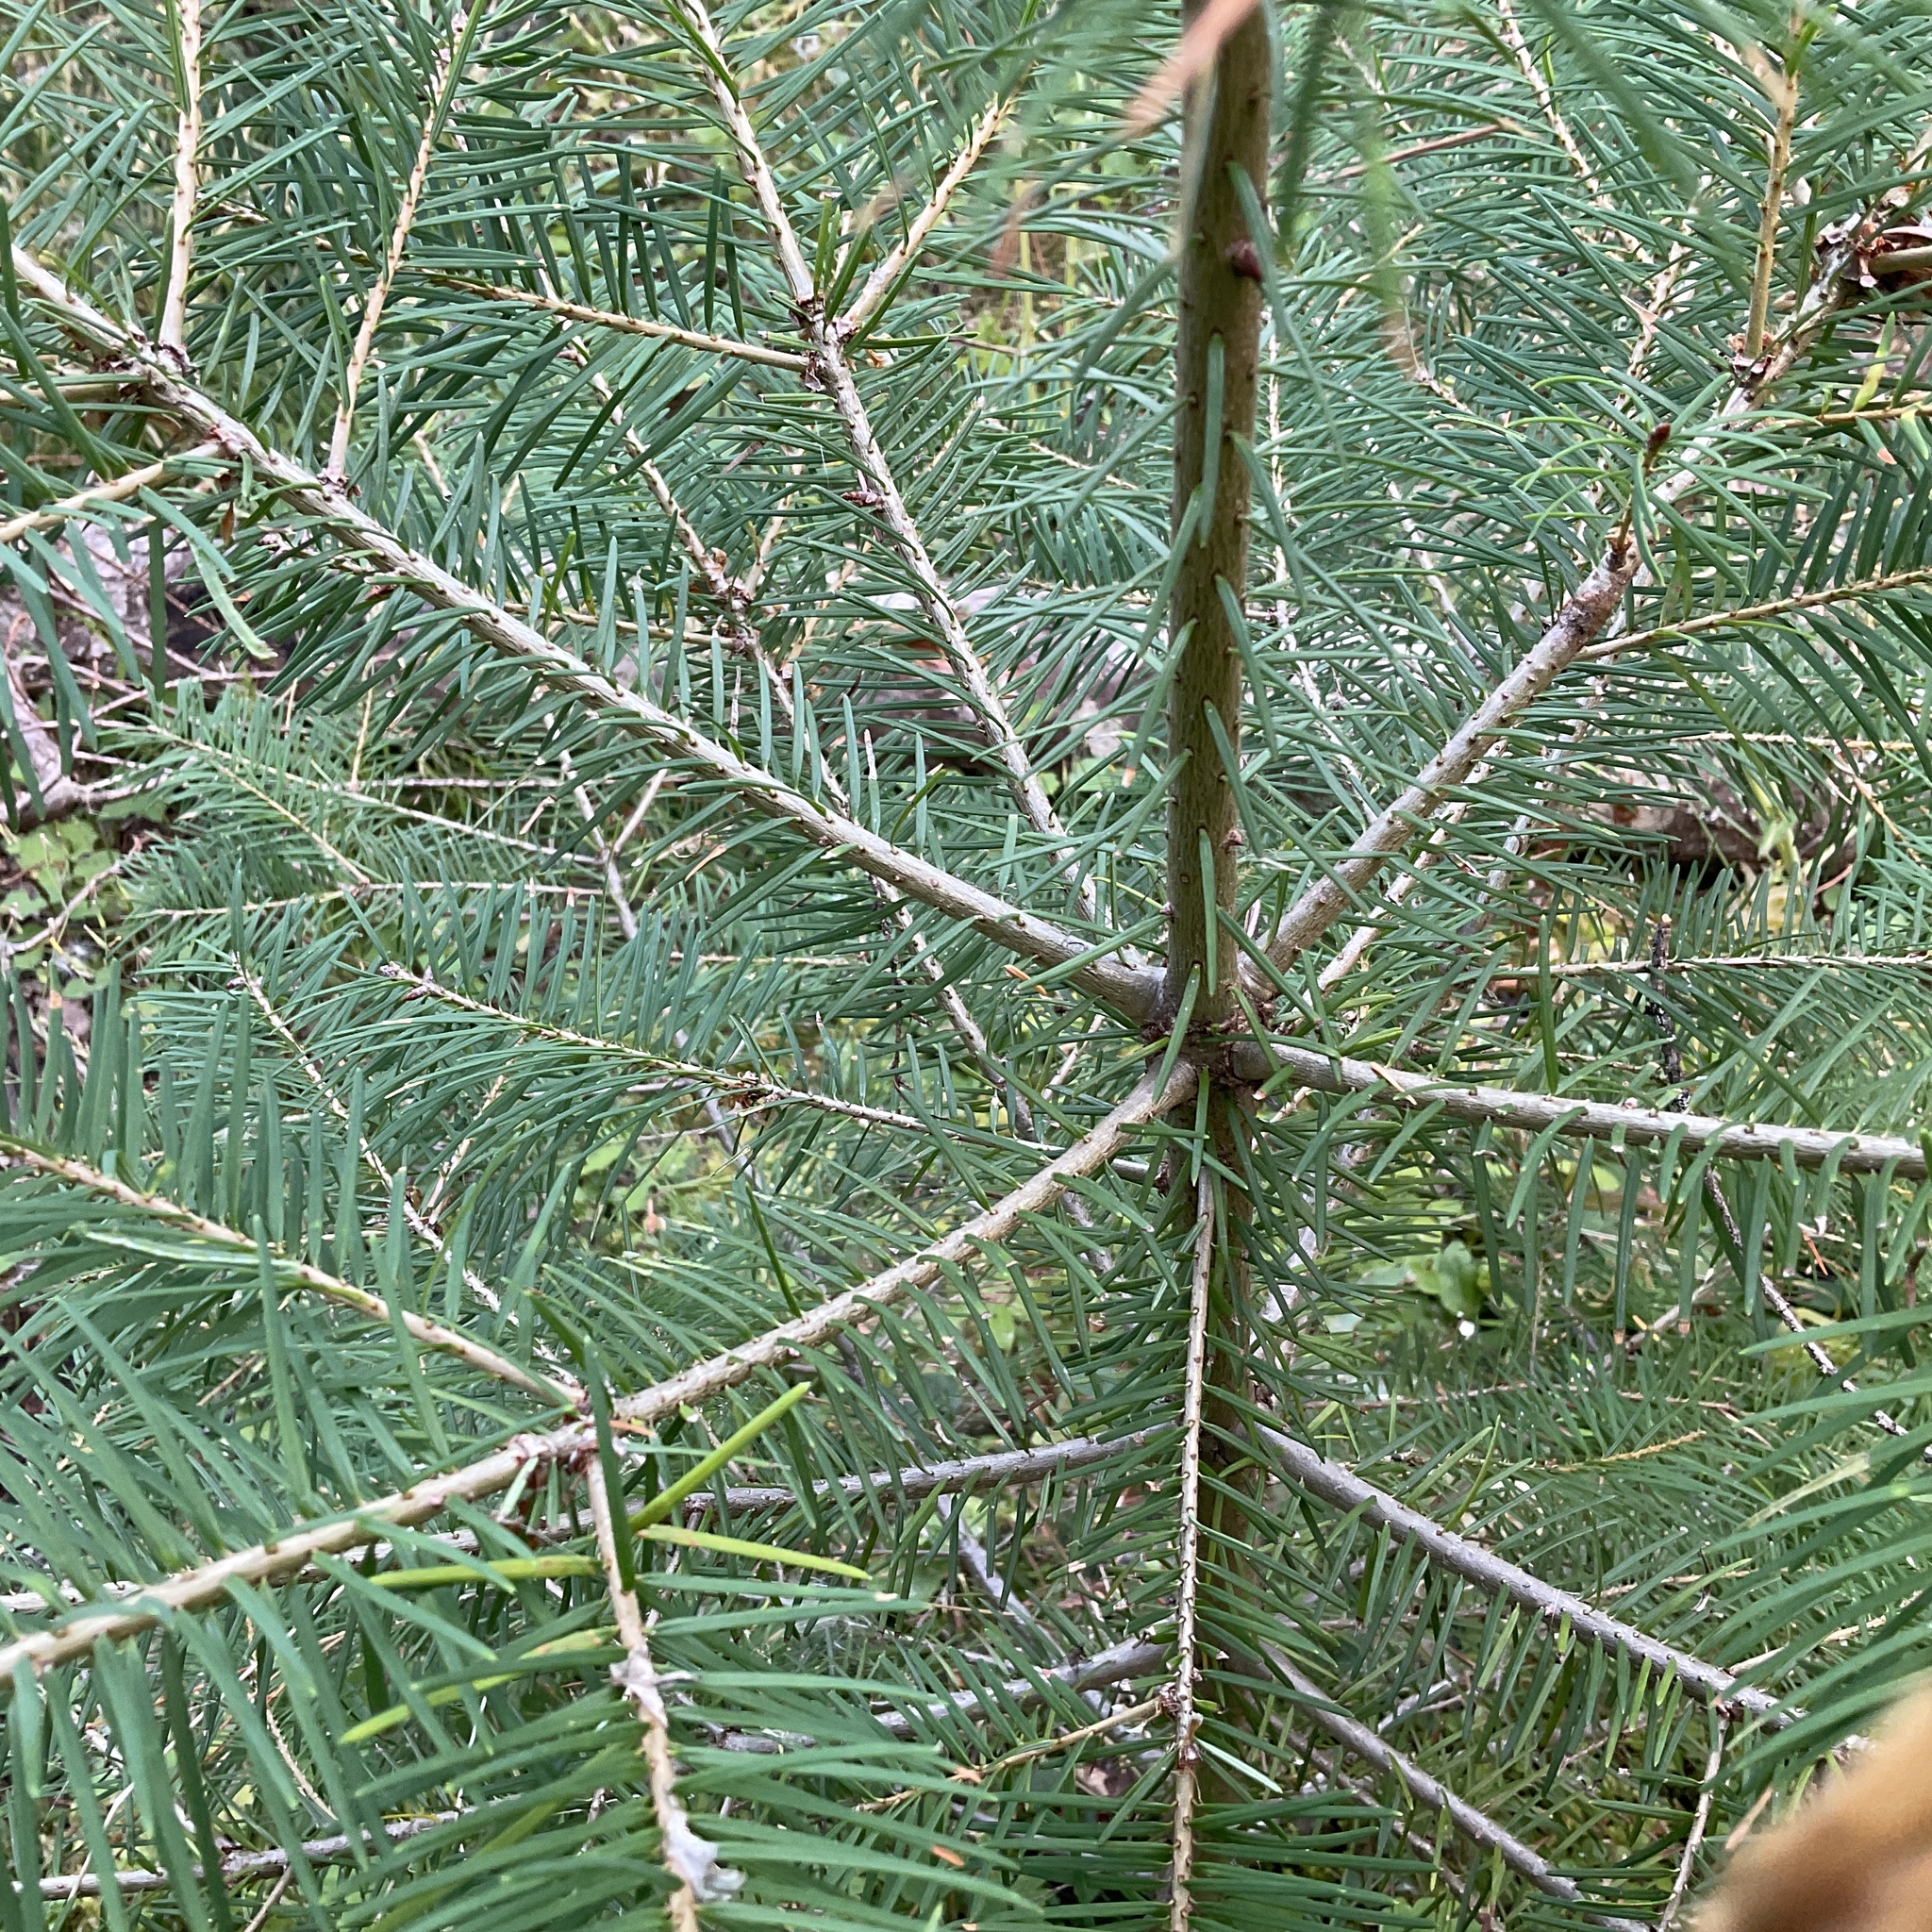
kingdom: Plantae
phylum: Tracheophyta
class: Pinopsida
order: Pinales
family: Pinaceae
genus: Pseudotsuga
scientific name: Pseudotsuga menziesii
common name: Douglas fir
